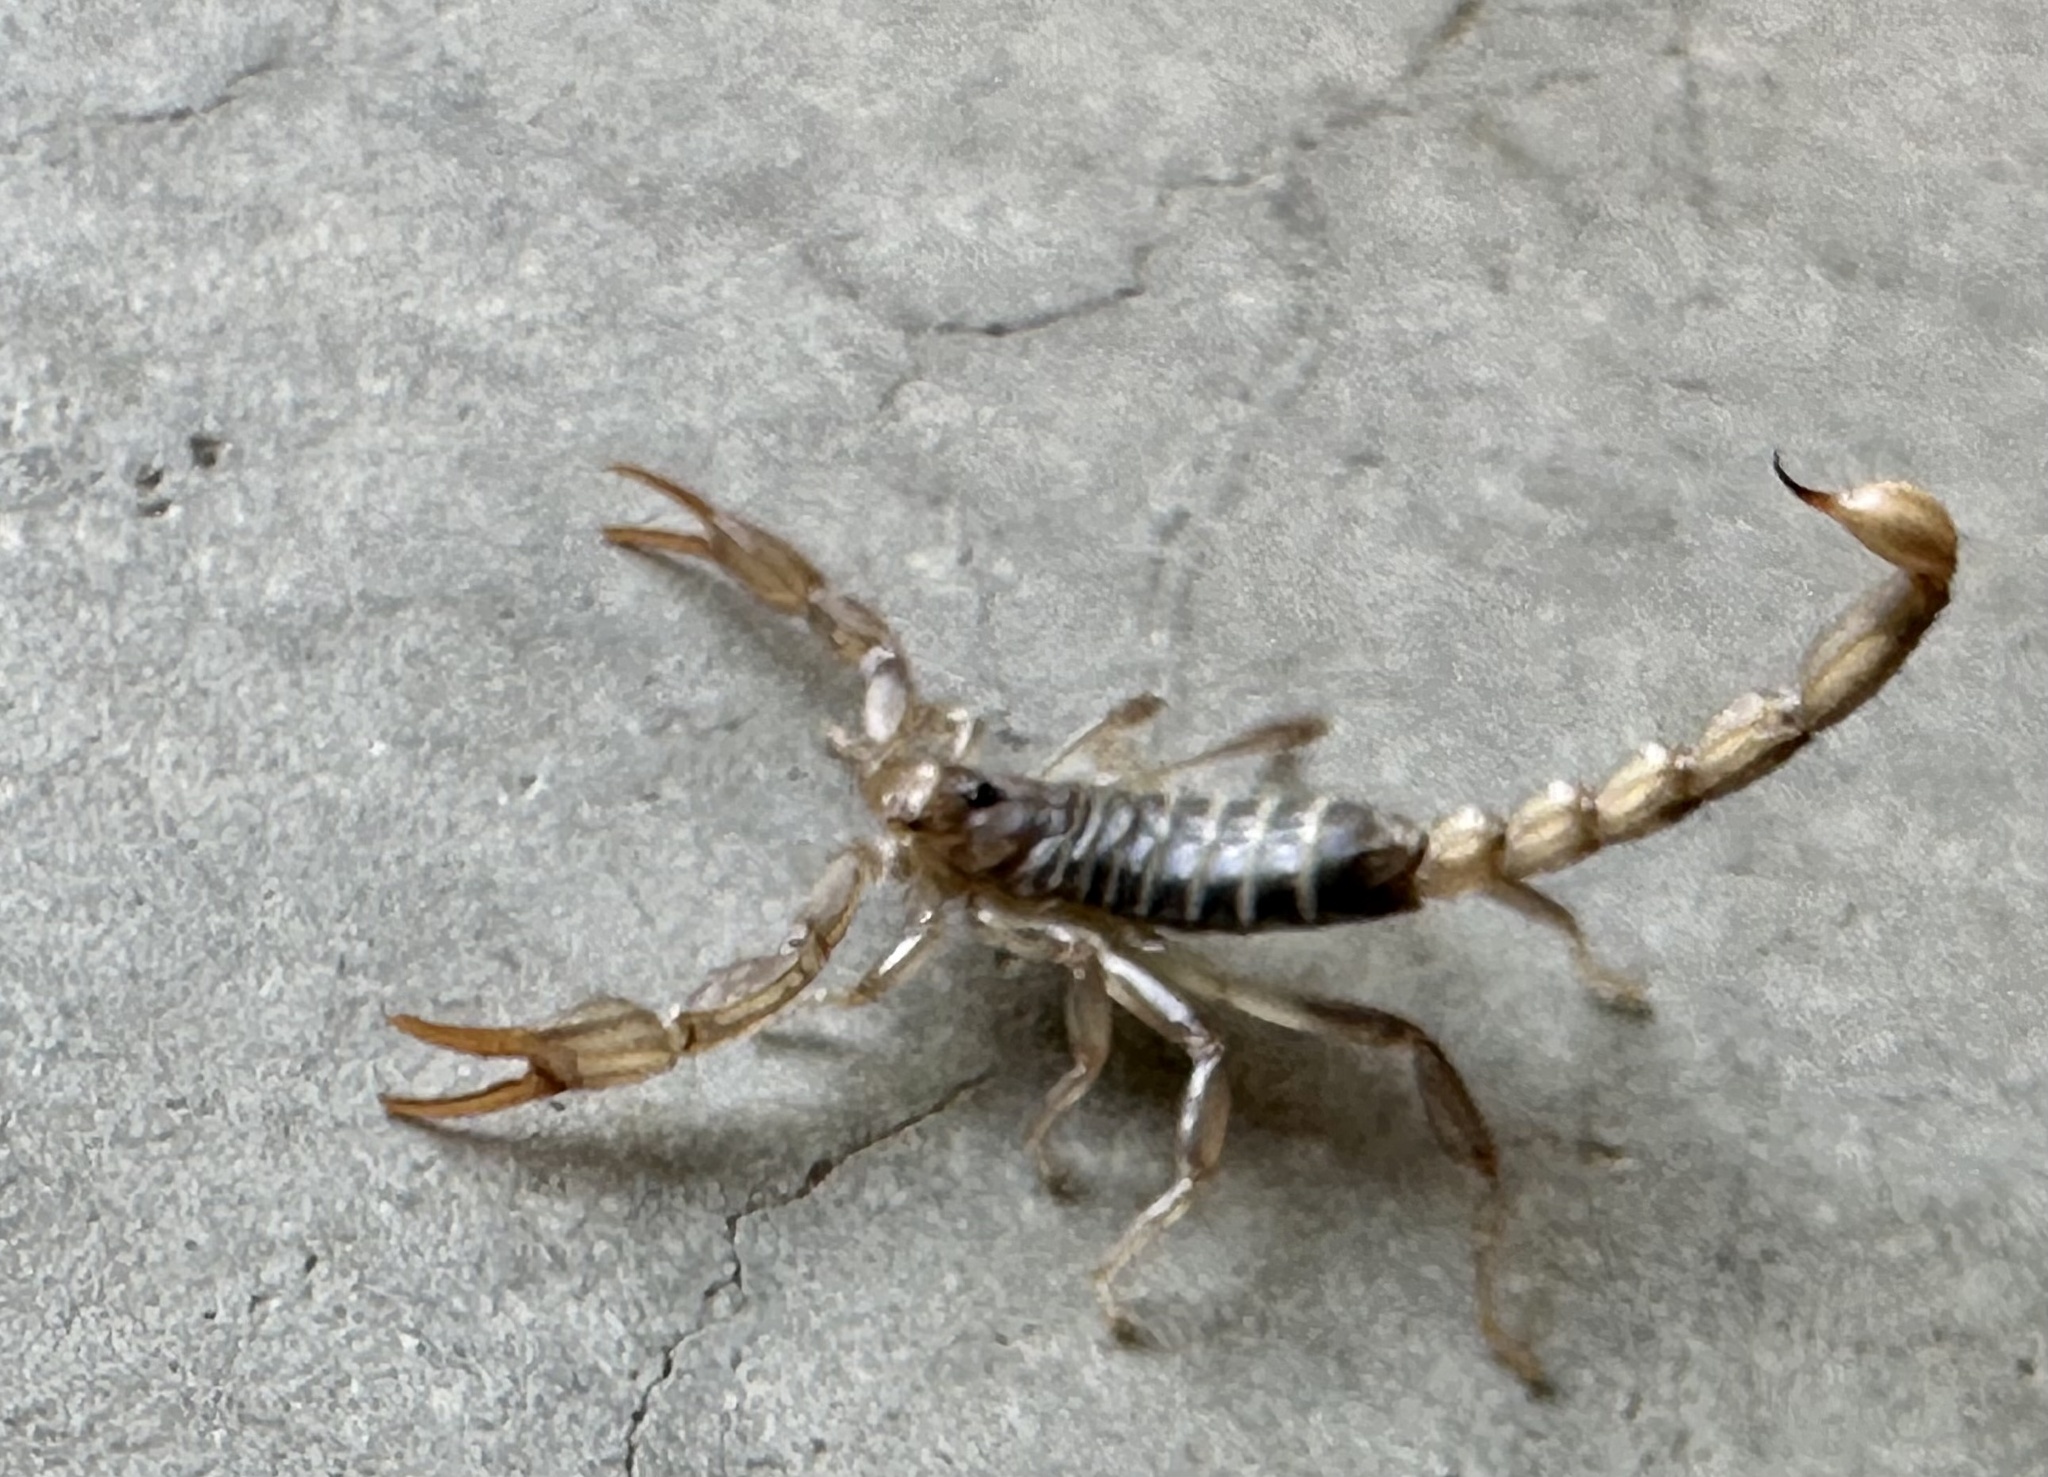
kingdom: Animalia
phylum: Arthropoda
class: Arachnida
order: Scorpiones
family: Vaejovidae
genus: Paruroctonus
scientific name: Paruroctonus boreus
